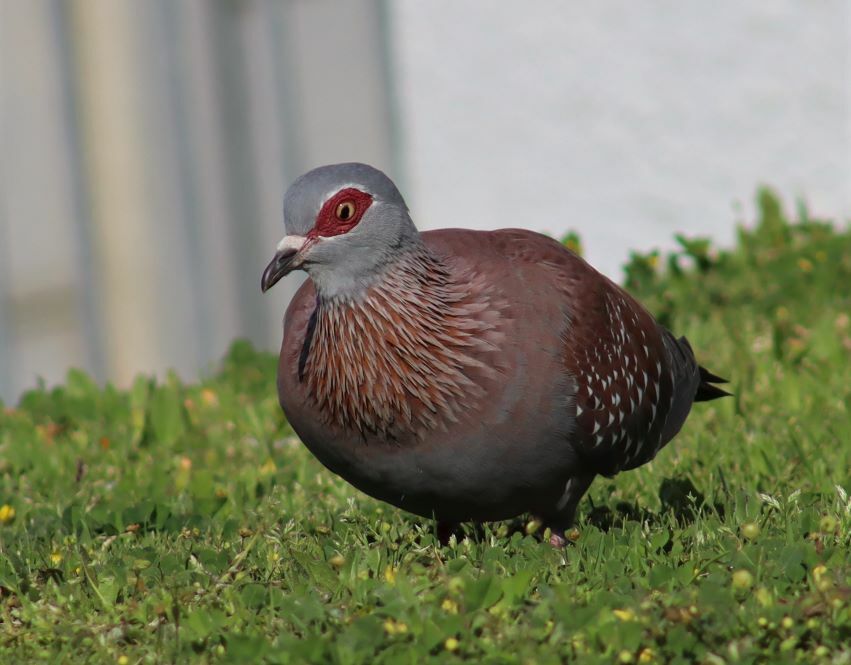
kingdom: Animalia
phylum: Chordata
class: Aves
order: Columbiformes
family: Columbidae
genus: Columba
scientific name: Columba guinea
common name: Speckled pigeon
